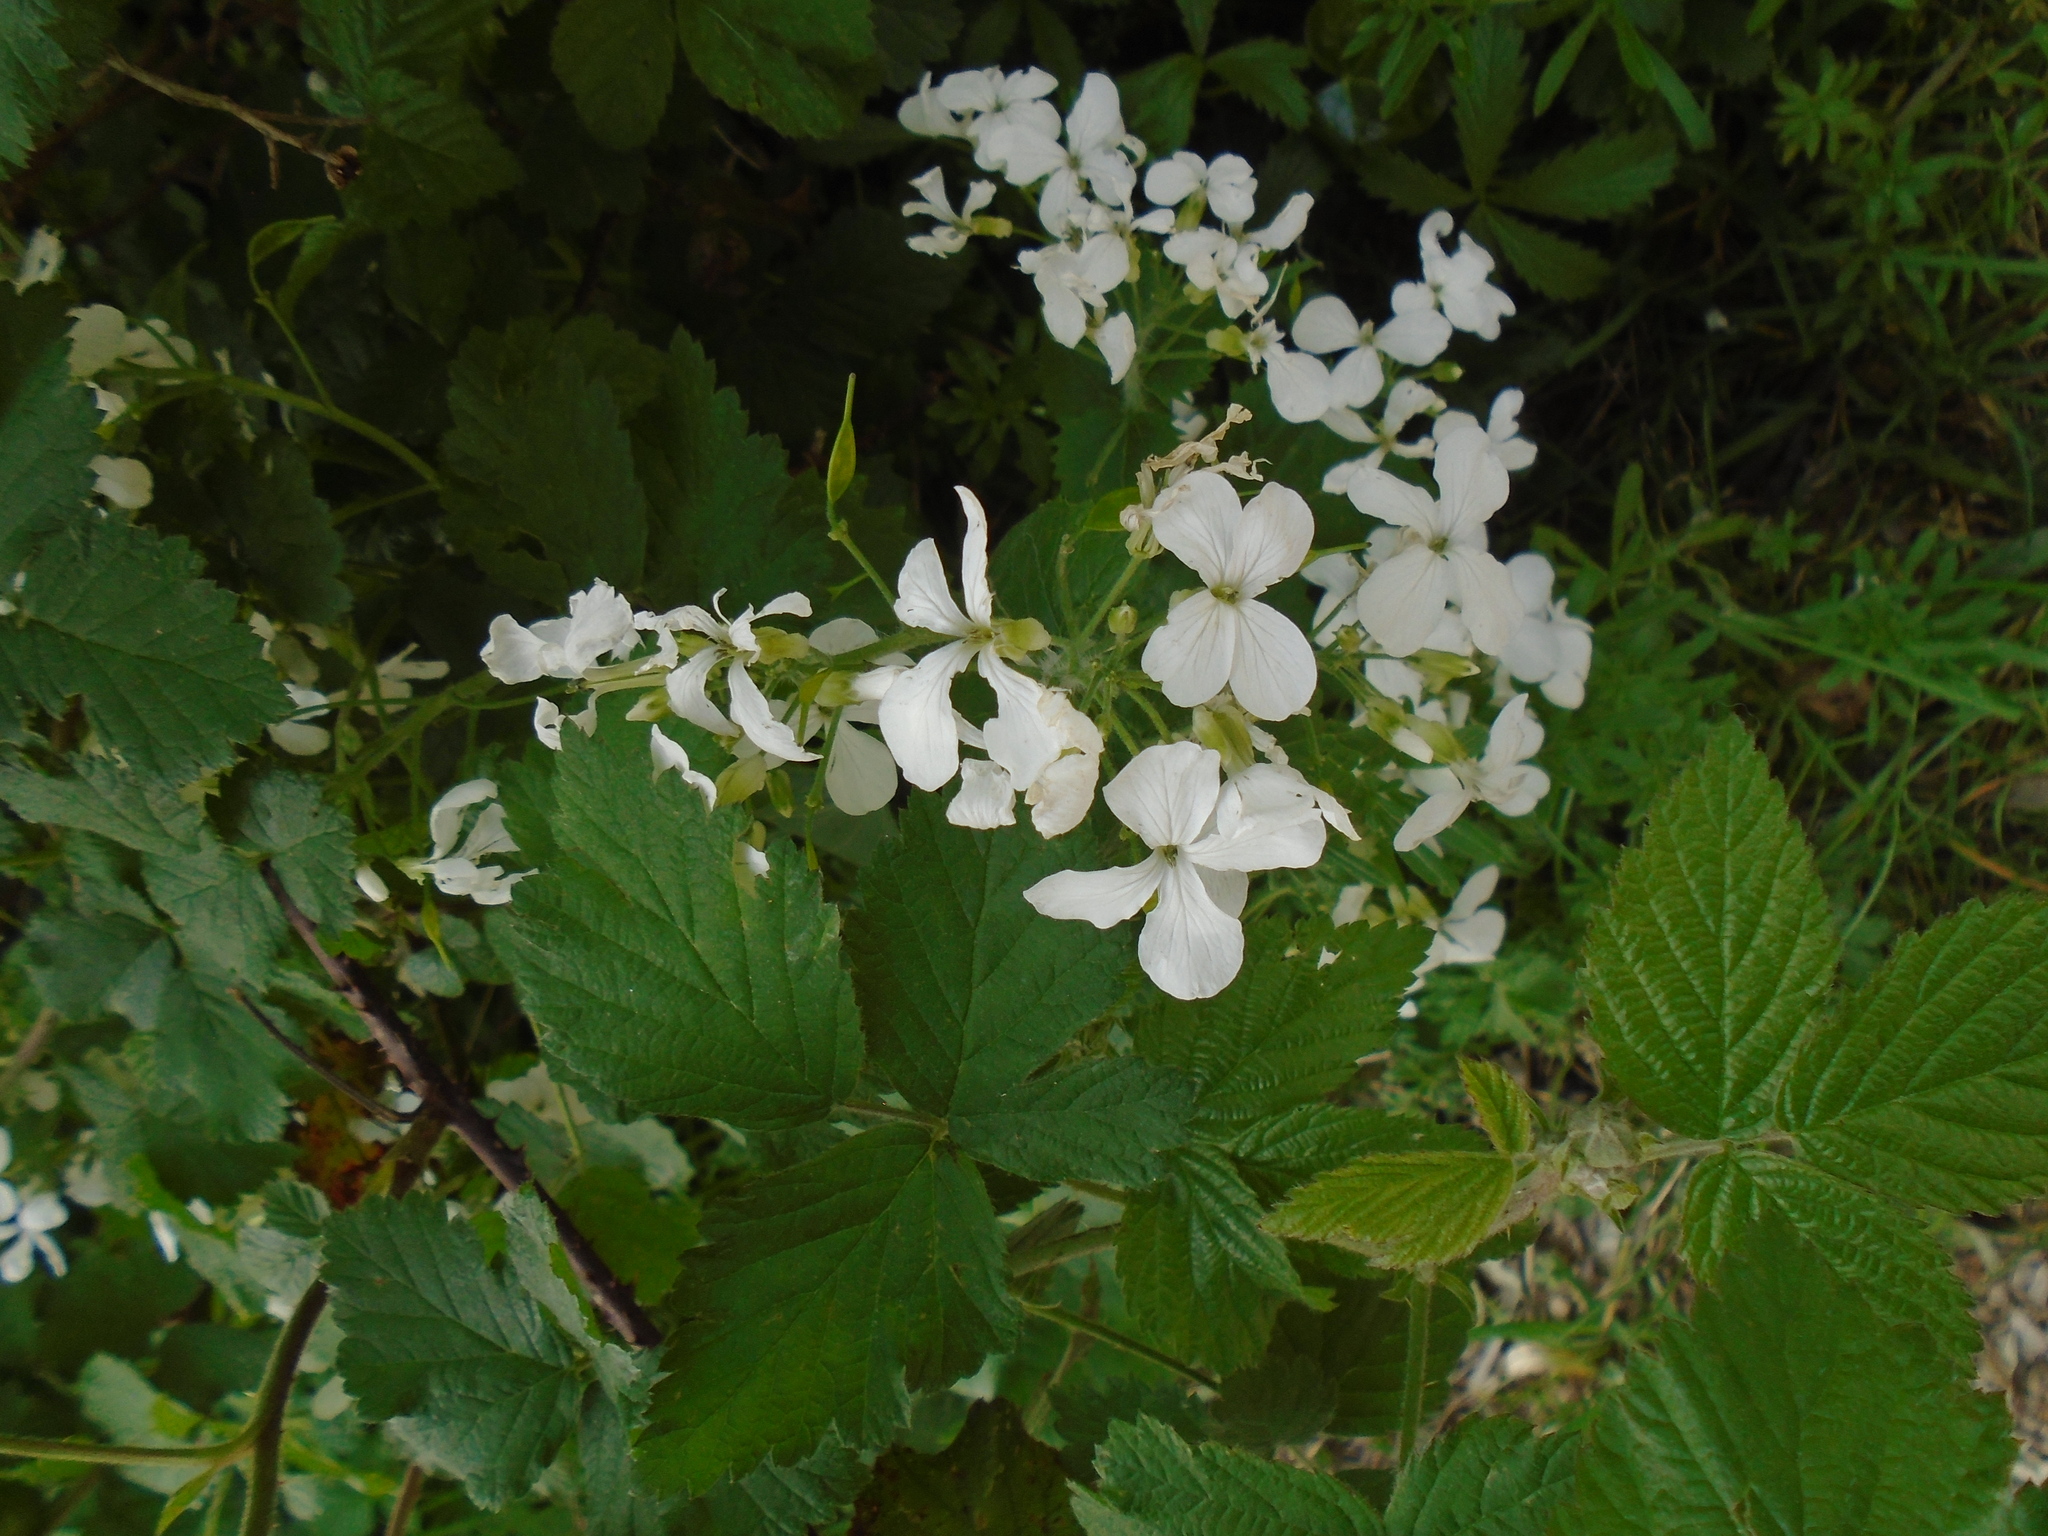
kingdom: Plantae
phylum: Tracheophyta
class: Magnoliopsida
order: Brassicales
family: Brassicaceae
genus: Lunaria
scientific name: Lunaria annua
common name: Honesty
